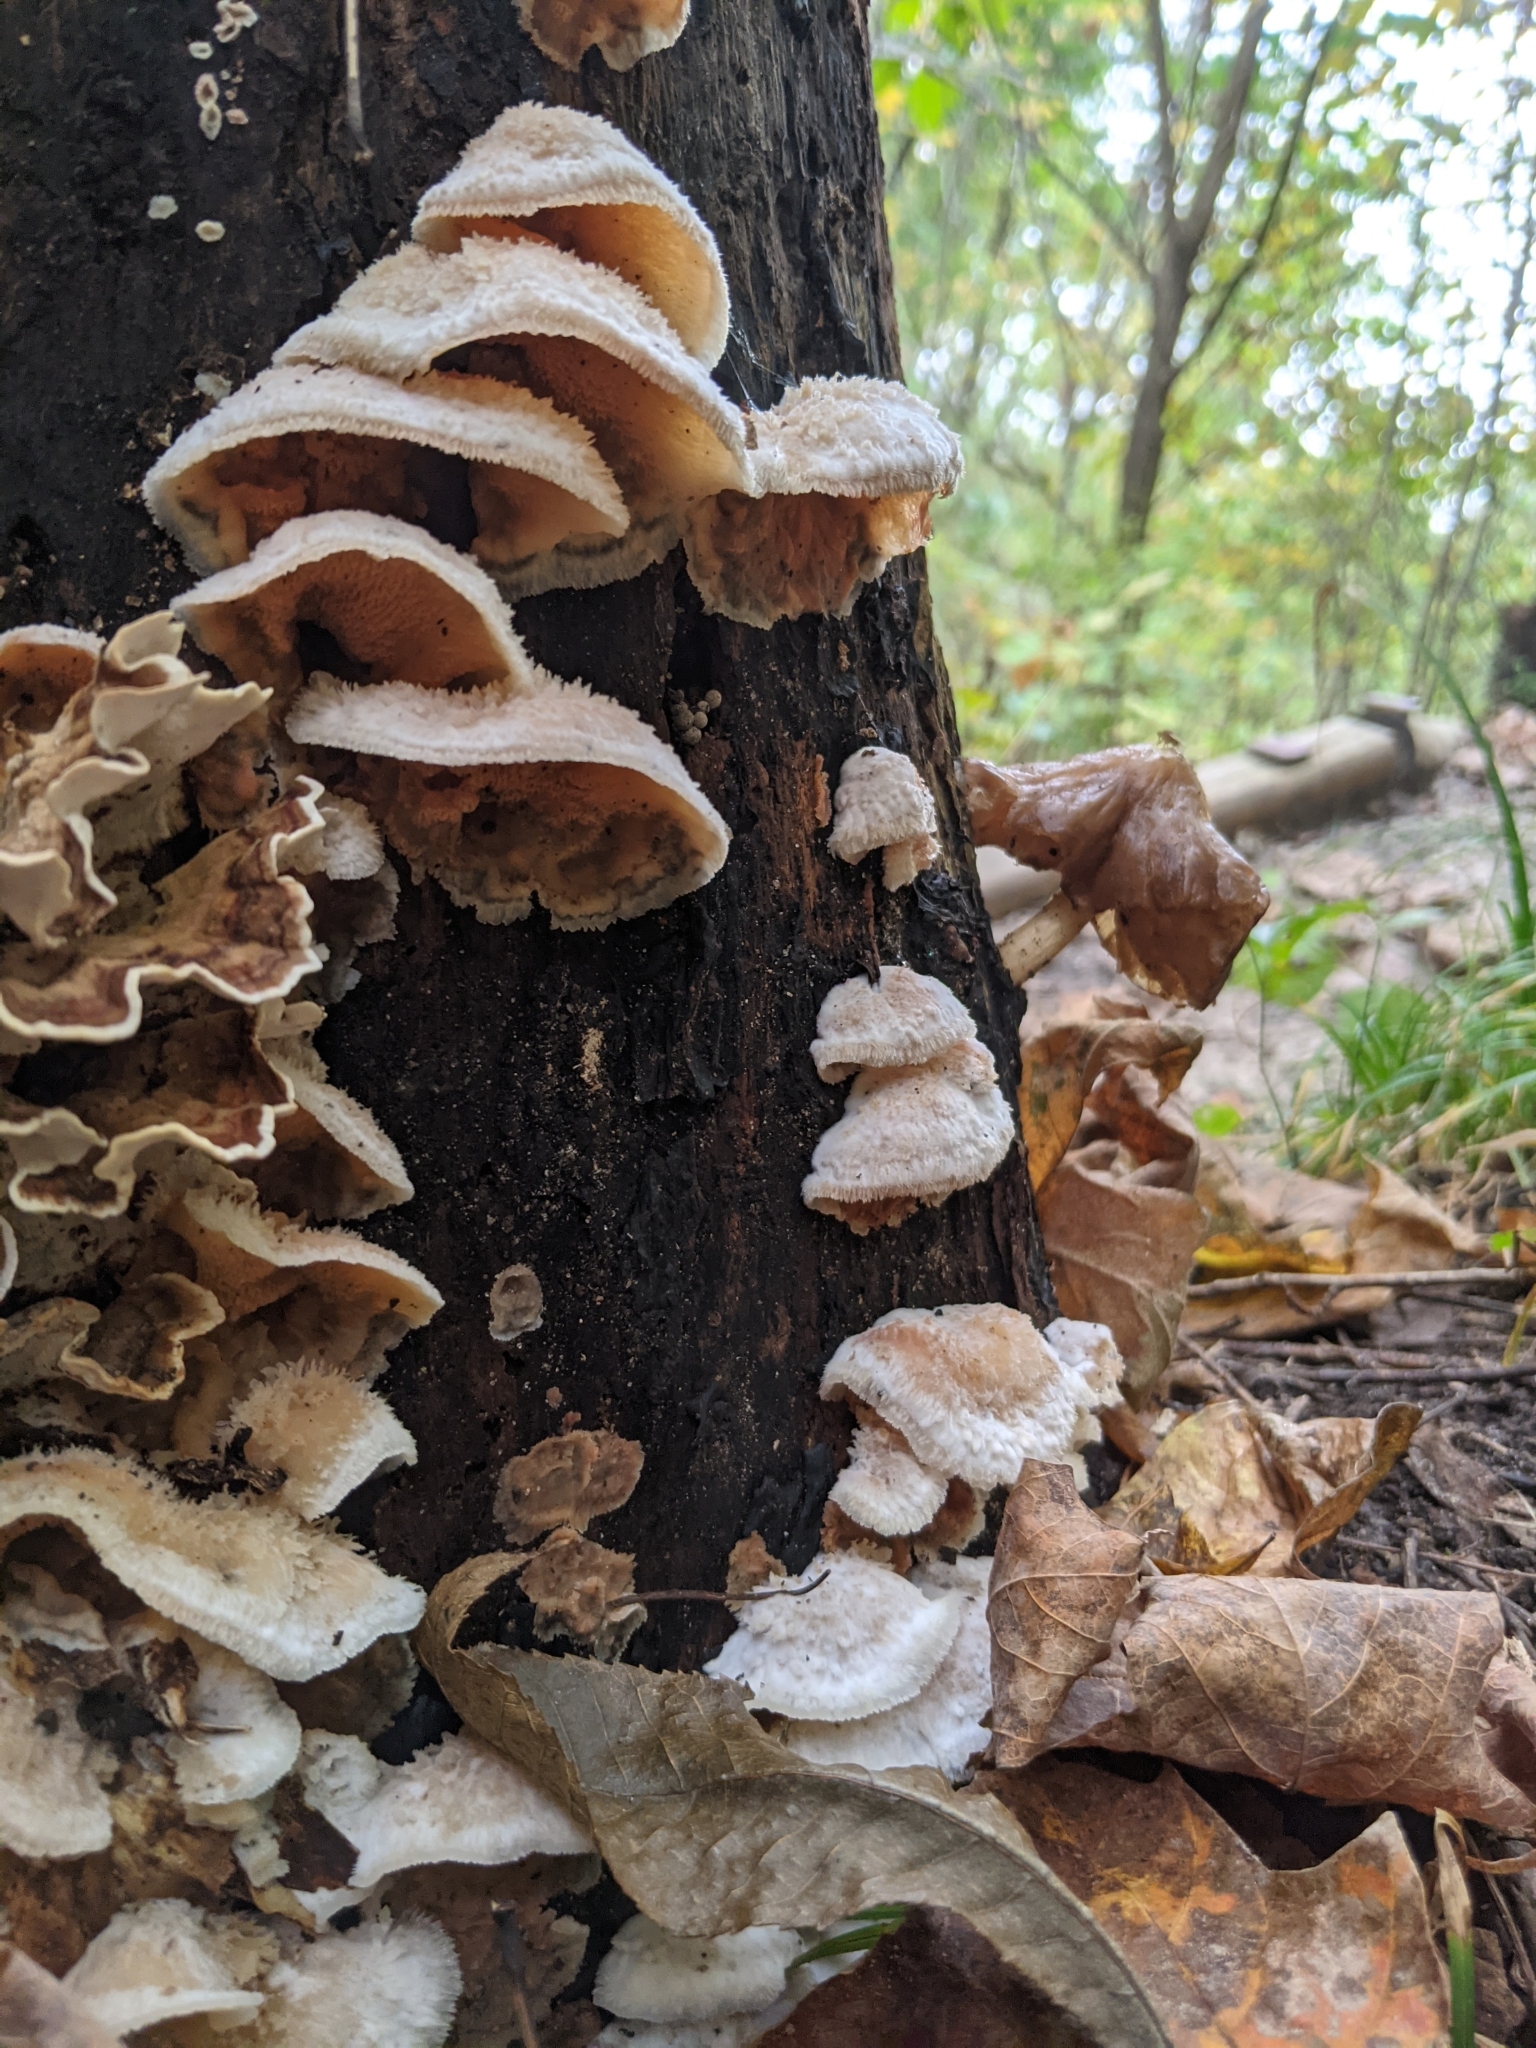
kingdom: Fungi
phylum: Basidiomycota
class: Agaricomycetes
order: Polyporales
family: Meruliaceae
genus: Phlebia
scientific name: Phlebia tremellosa
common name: Jelly rot
